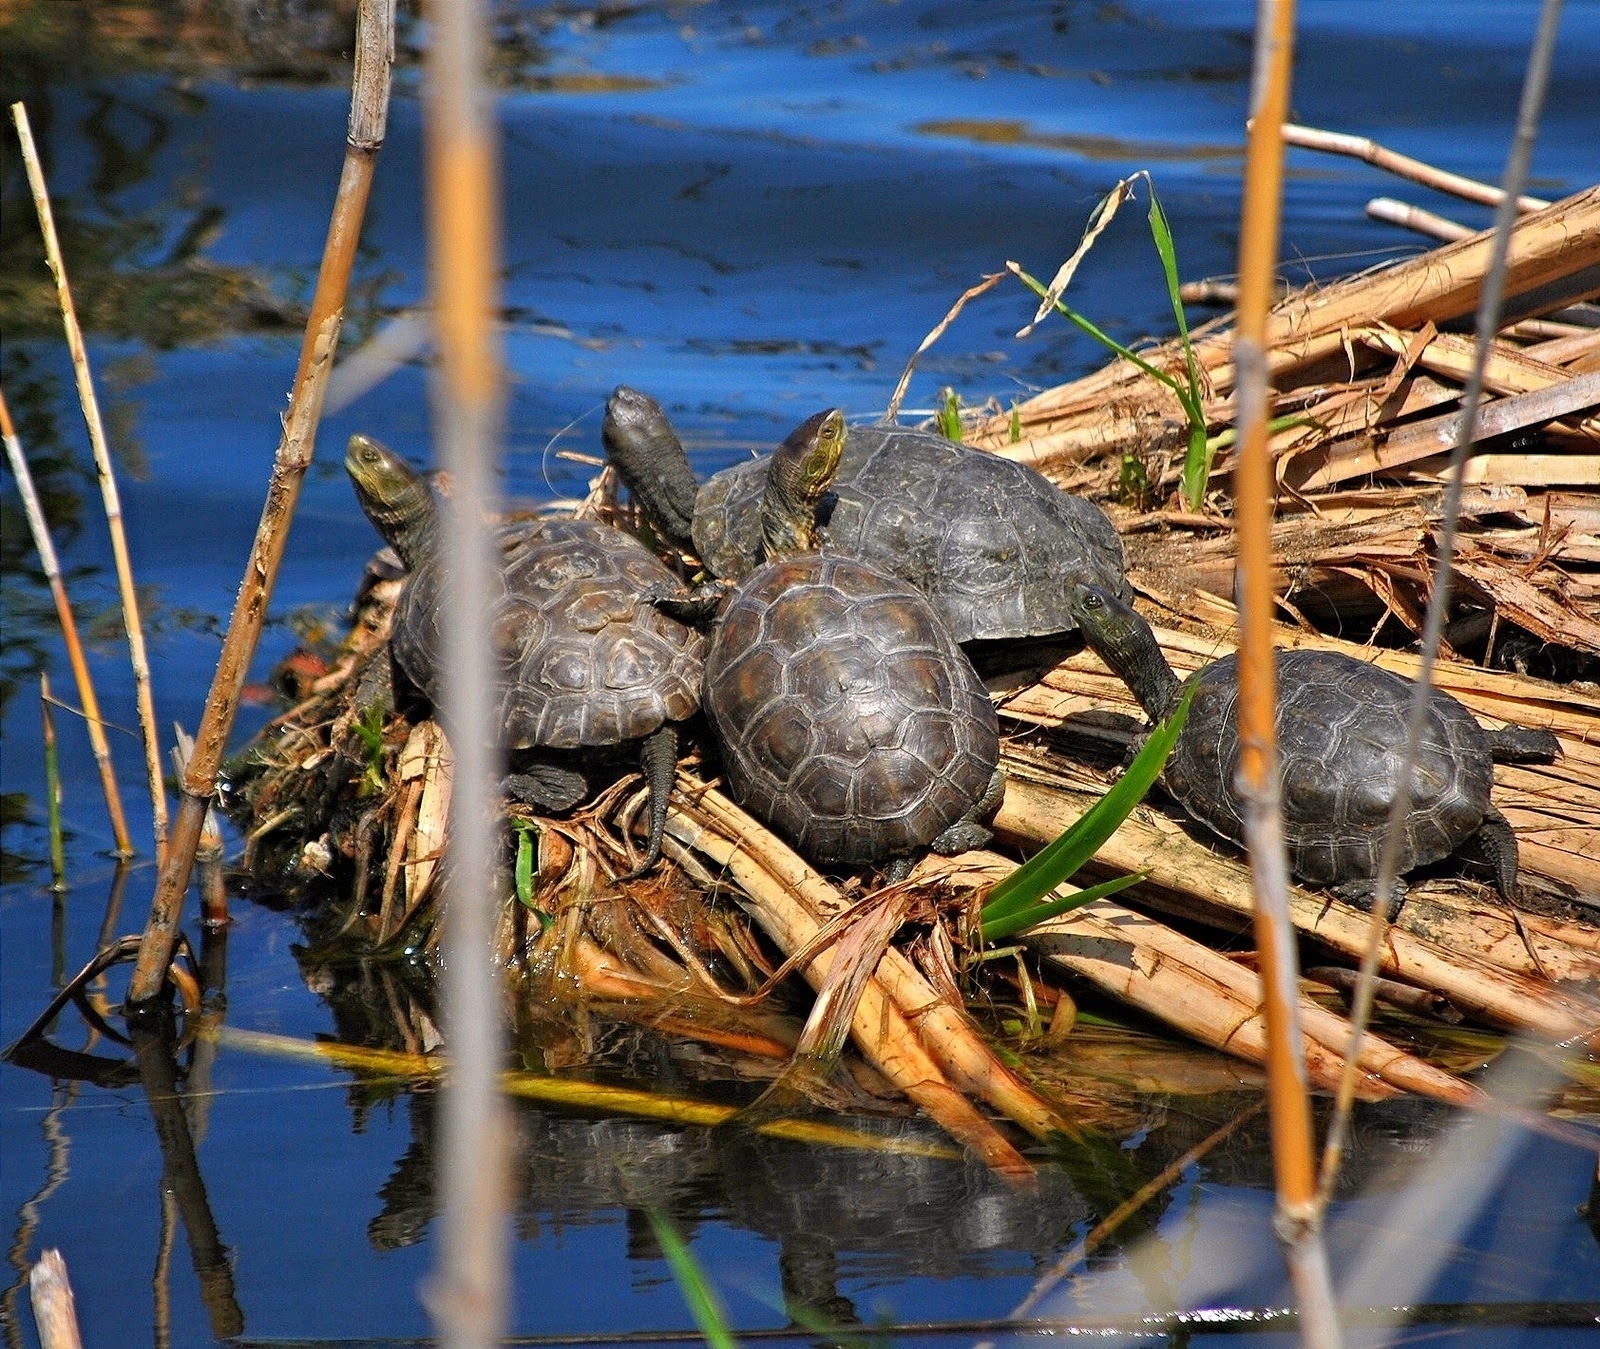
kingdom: Animalia
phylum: Chordata
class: Testudines
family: Geoemydidae
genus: Mauremys
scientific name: Mauremys leprosa
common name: Mediterranean pond turtle
